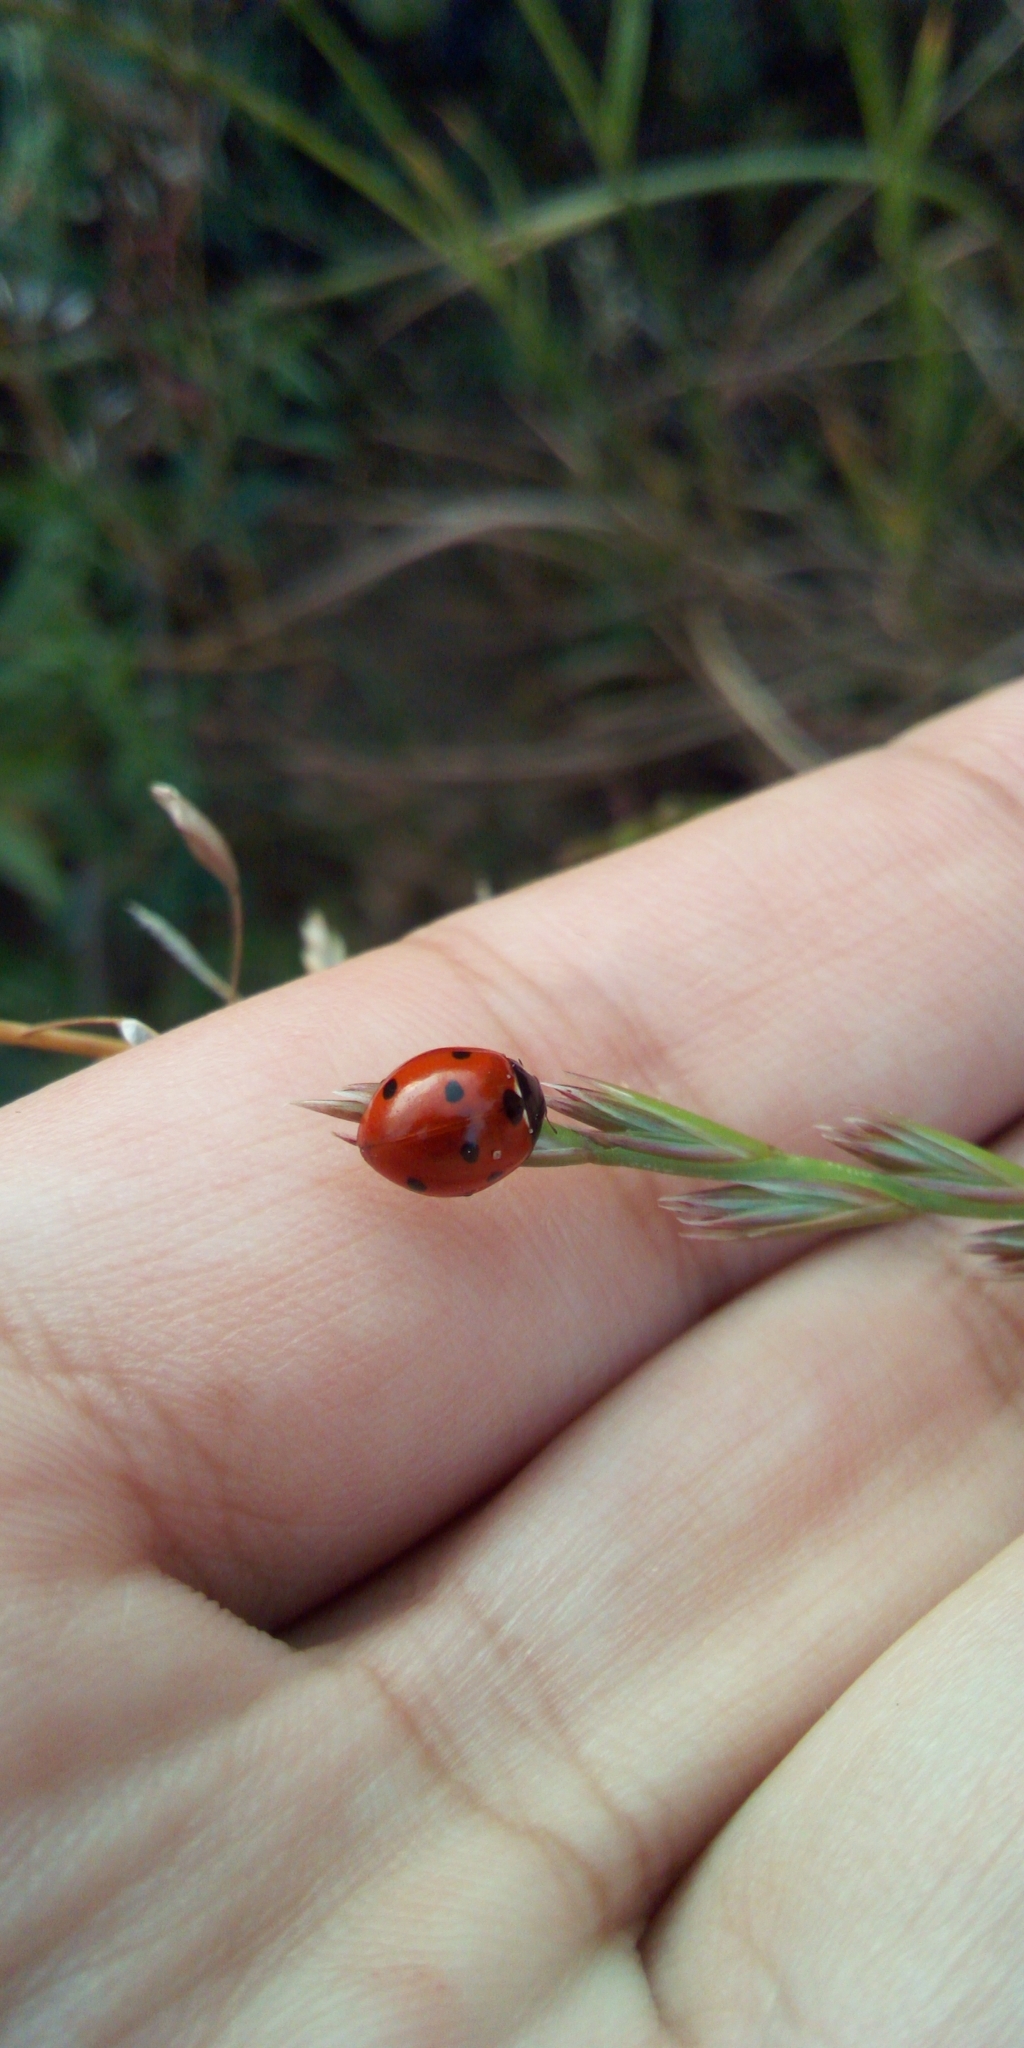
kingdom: Animalia
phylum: Arthropoda
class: Insecta
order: Coleoptera
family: Coccinellidae
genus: Coccinella
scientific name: Coccinella septempunctata
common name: Sevenspotted lady beetle
